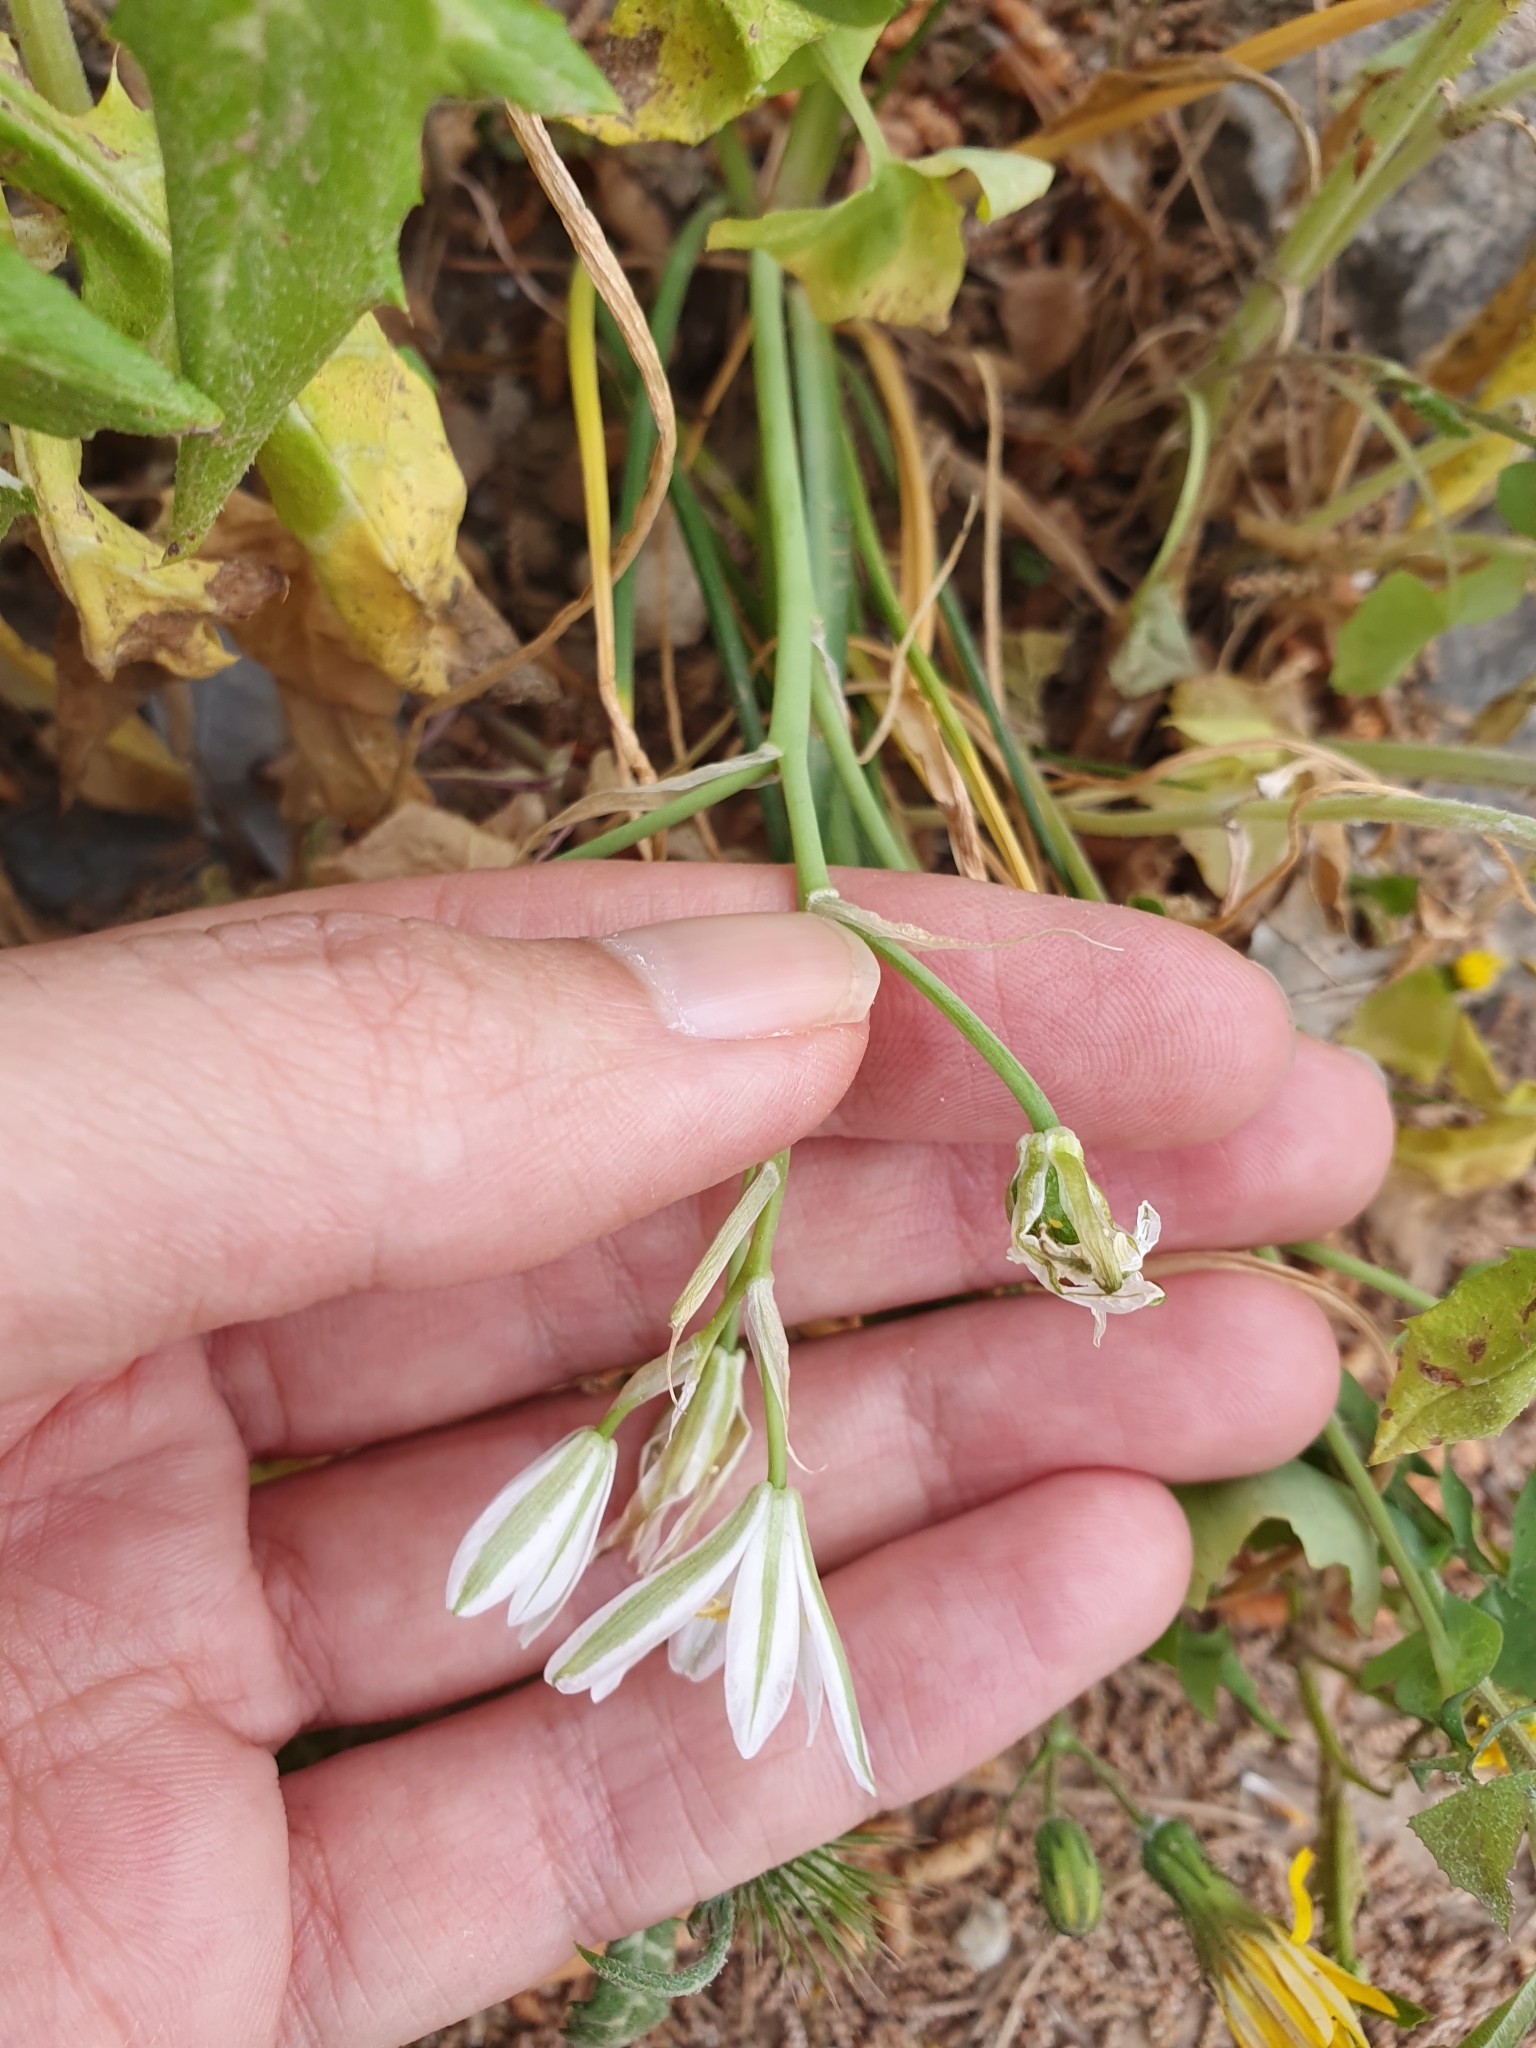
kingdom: Plantae
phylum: Tracheophyta
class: Liliopsida
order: Asparagales
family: Asparagaceae
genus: Ornithogalum
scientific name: Ornithogalum baeticum
